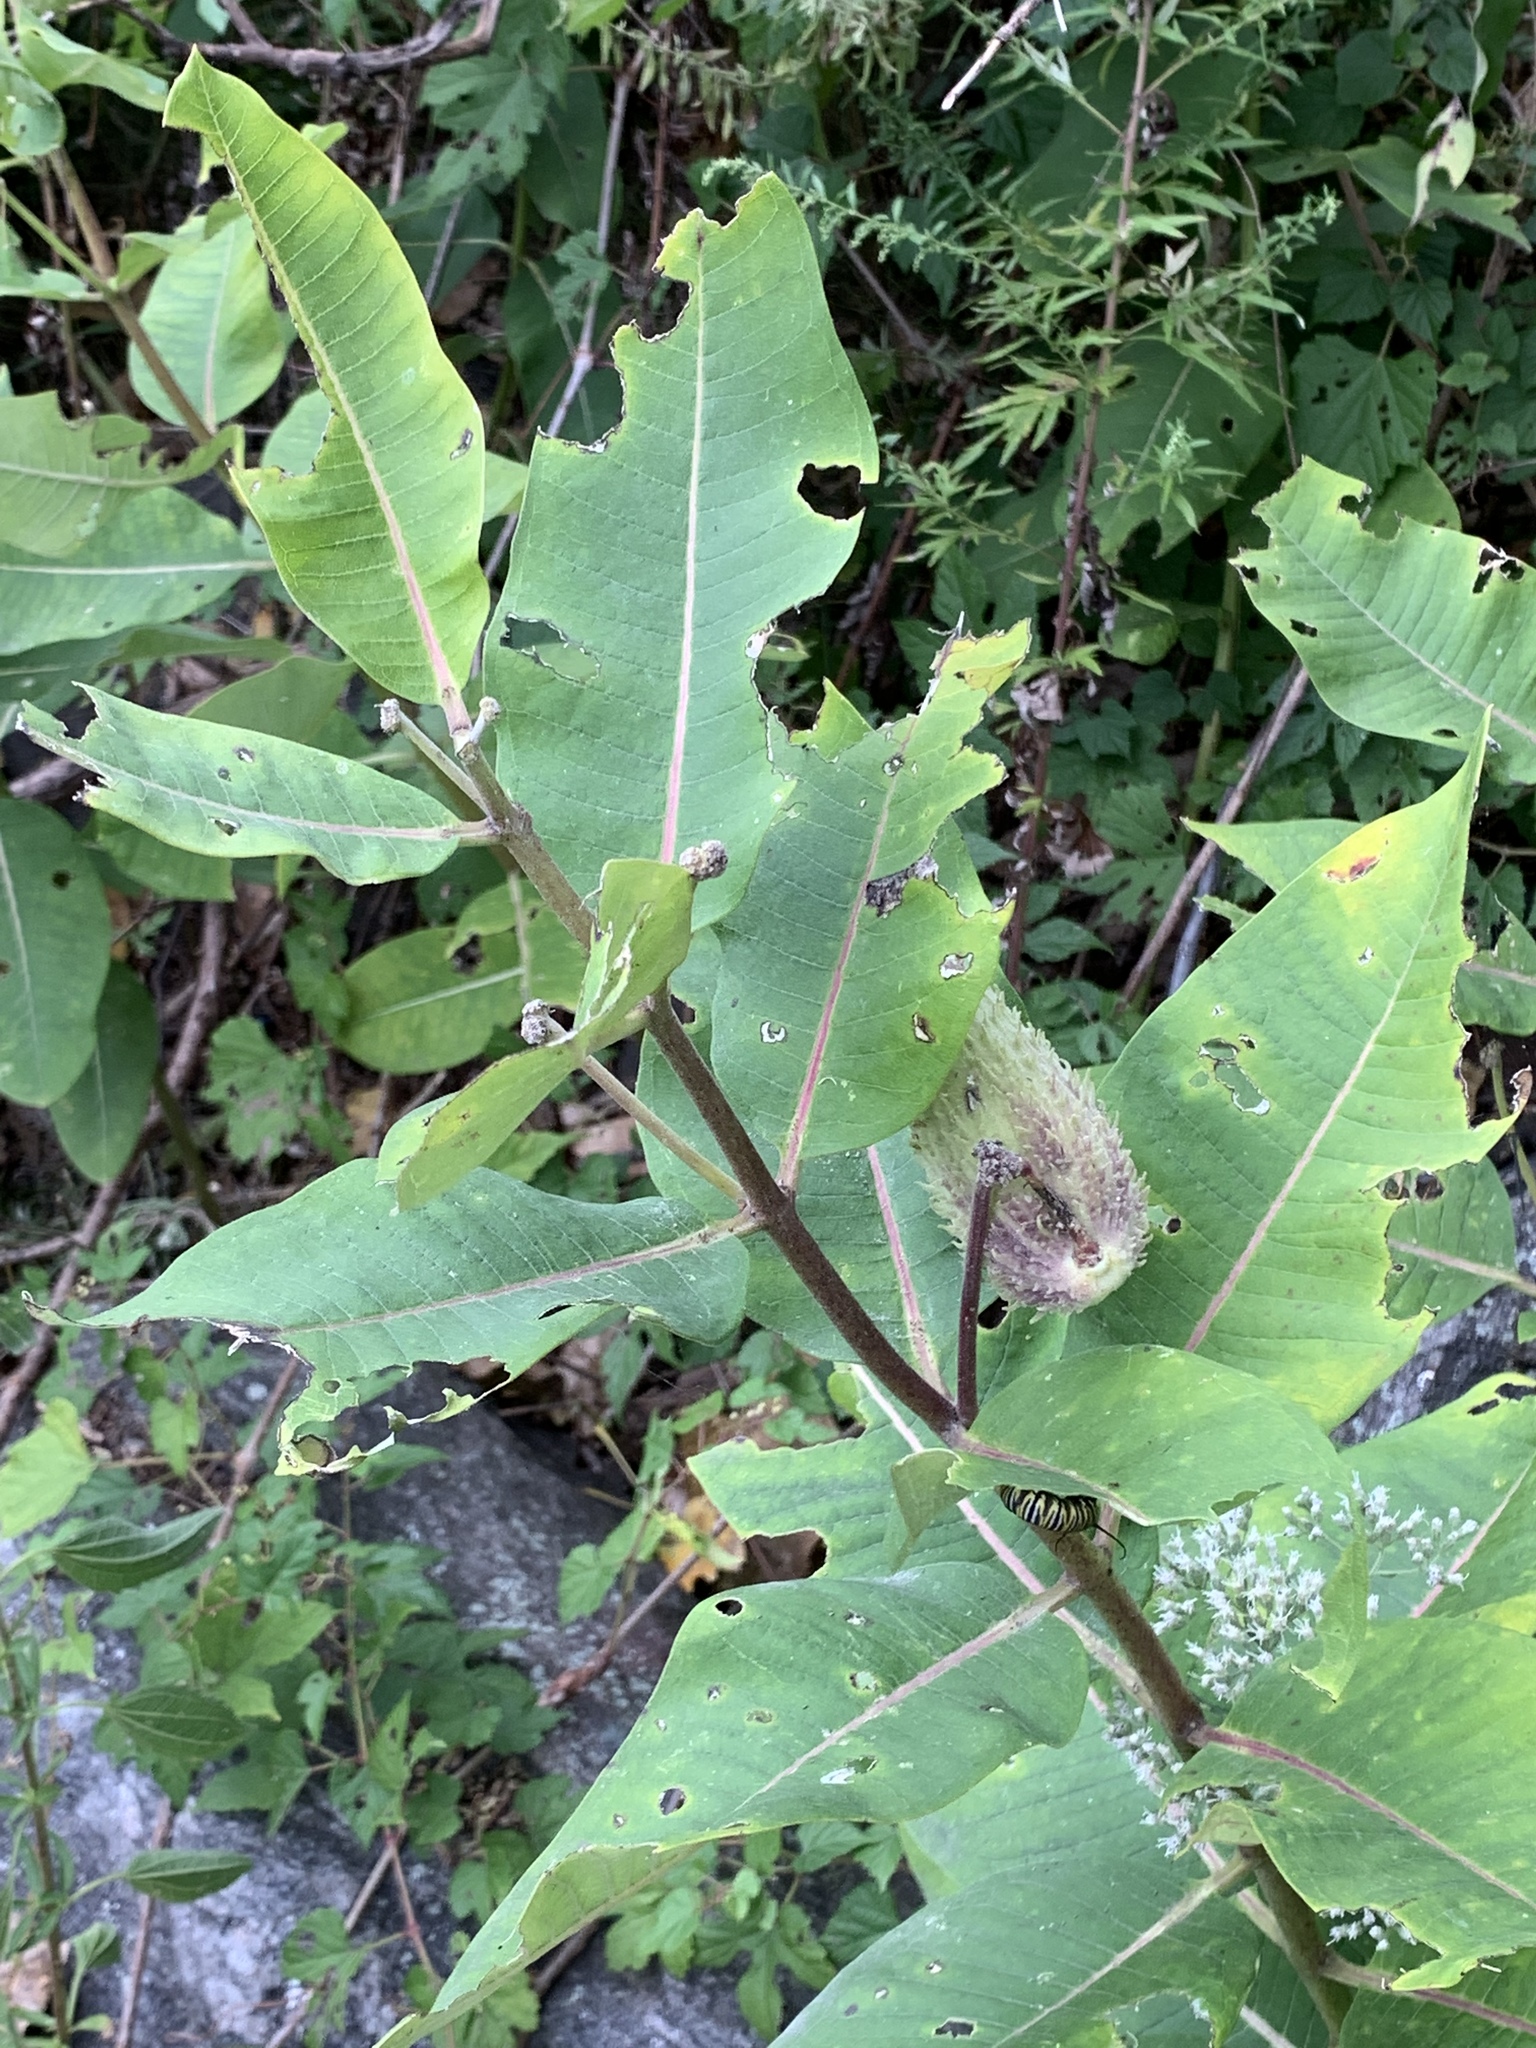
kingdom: Plantae
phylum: Tracheophyta
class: Magnoliopsida
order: Gentianales
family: Apocynaceae
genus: Asclepias
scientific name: Asclepias syriaca
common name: Common milkweed
